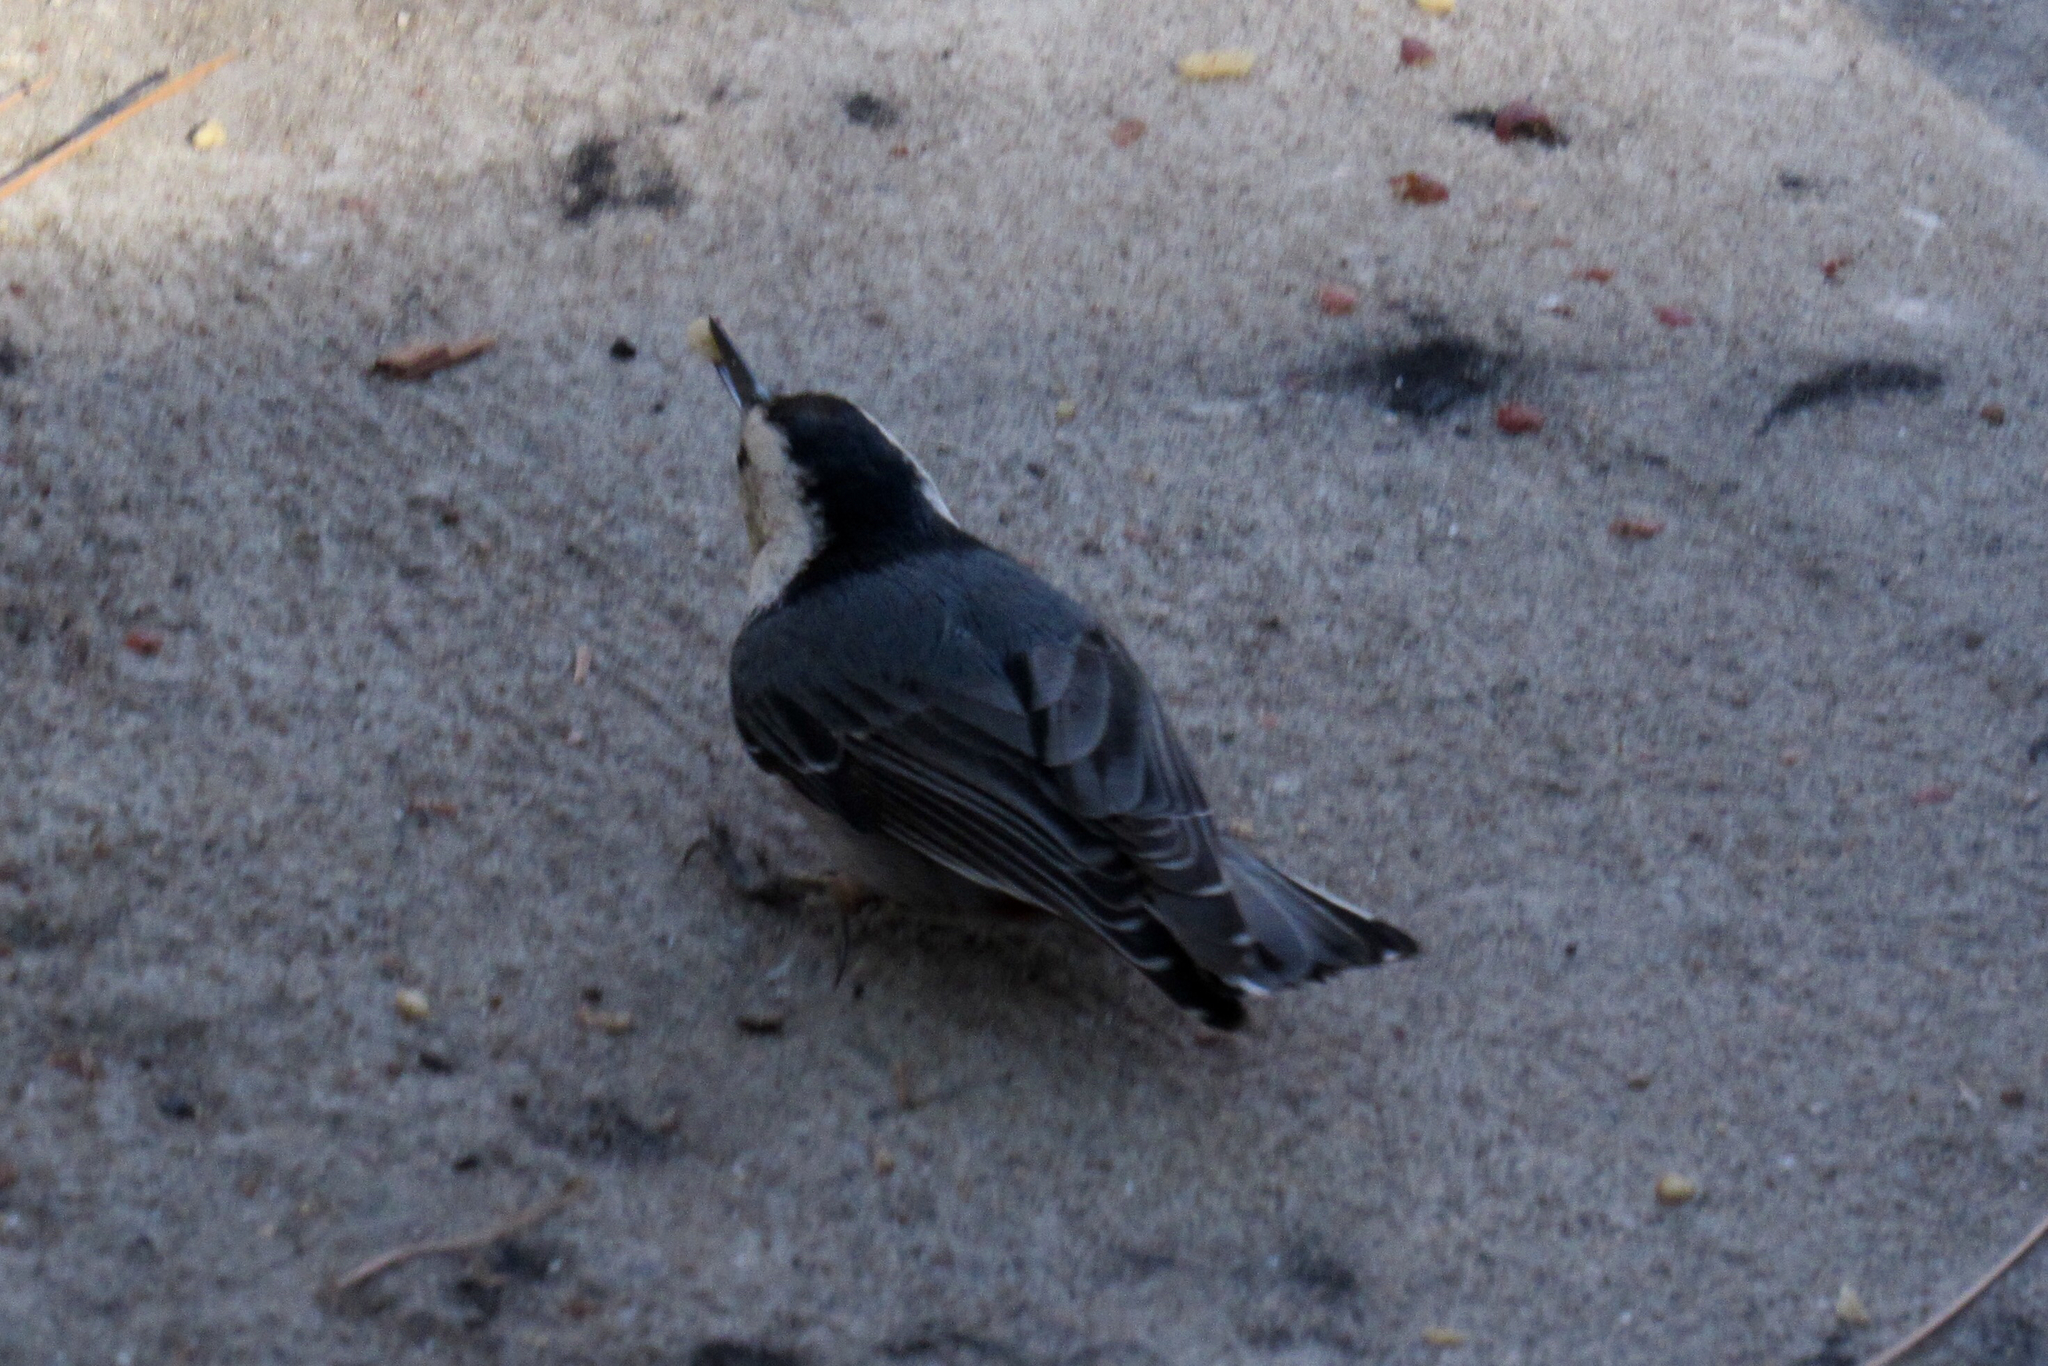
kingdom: Animalia
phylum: Chordata
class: Aves
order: Passeriformes
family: Sittidae
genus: Sitta
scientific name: Sitta carolinensis
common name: White-breasted nuthatch
